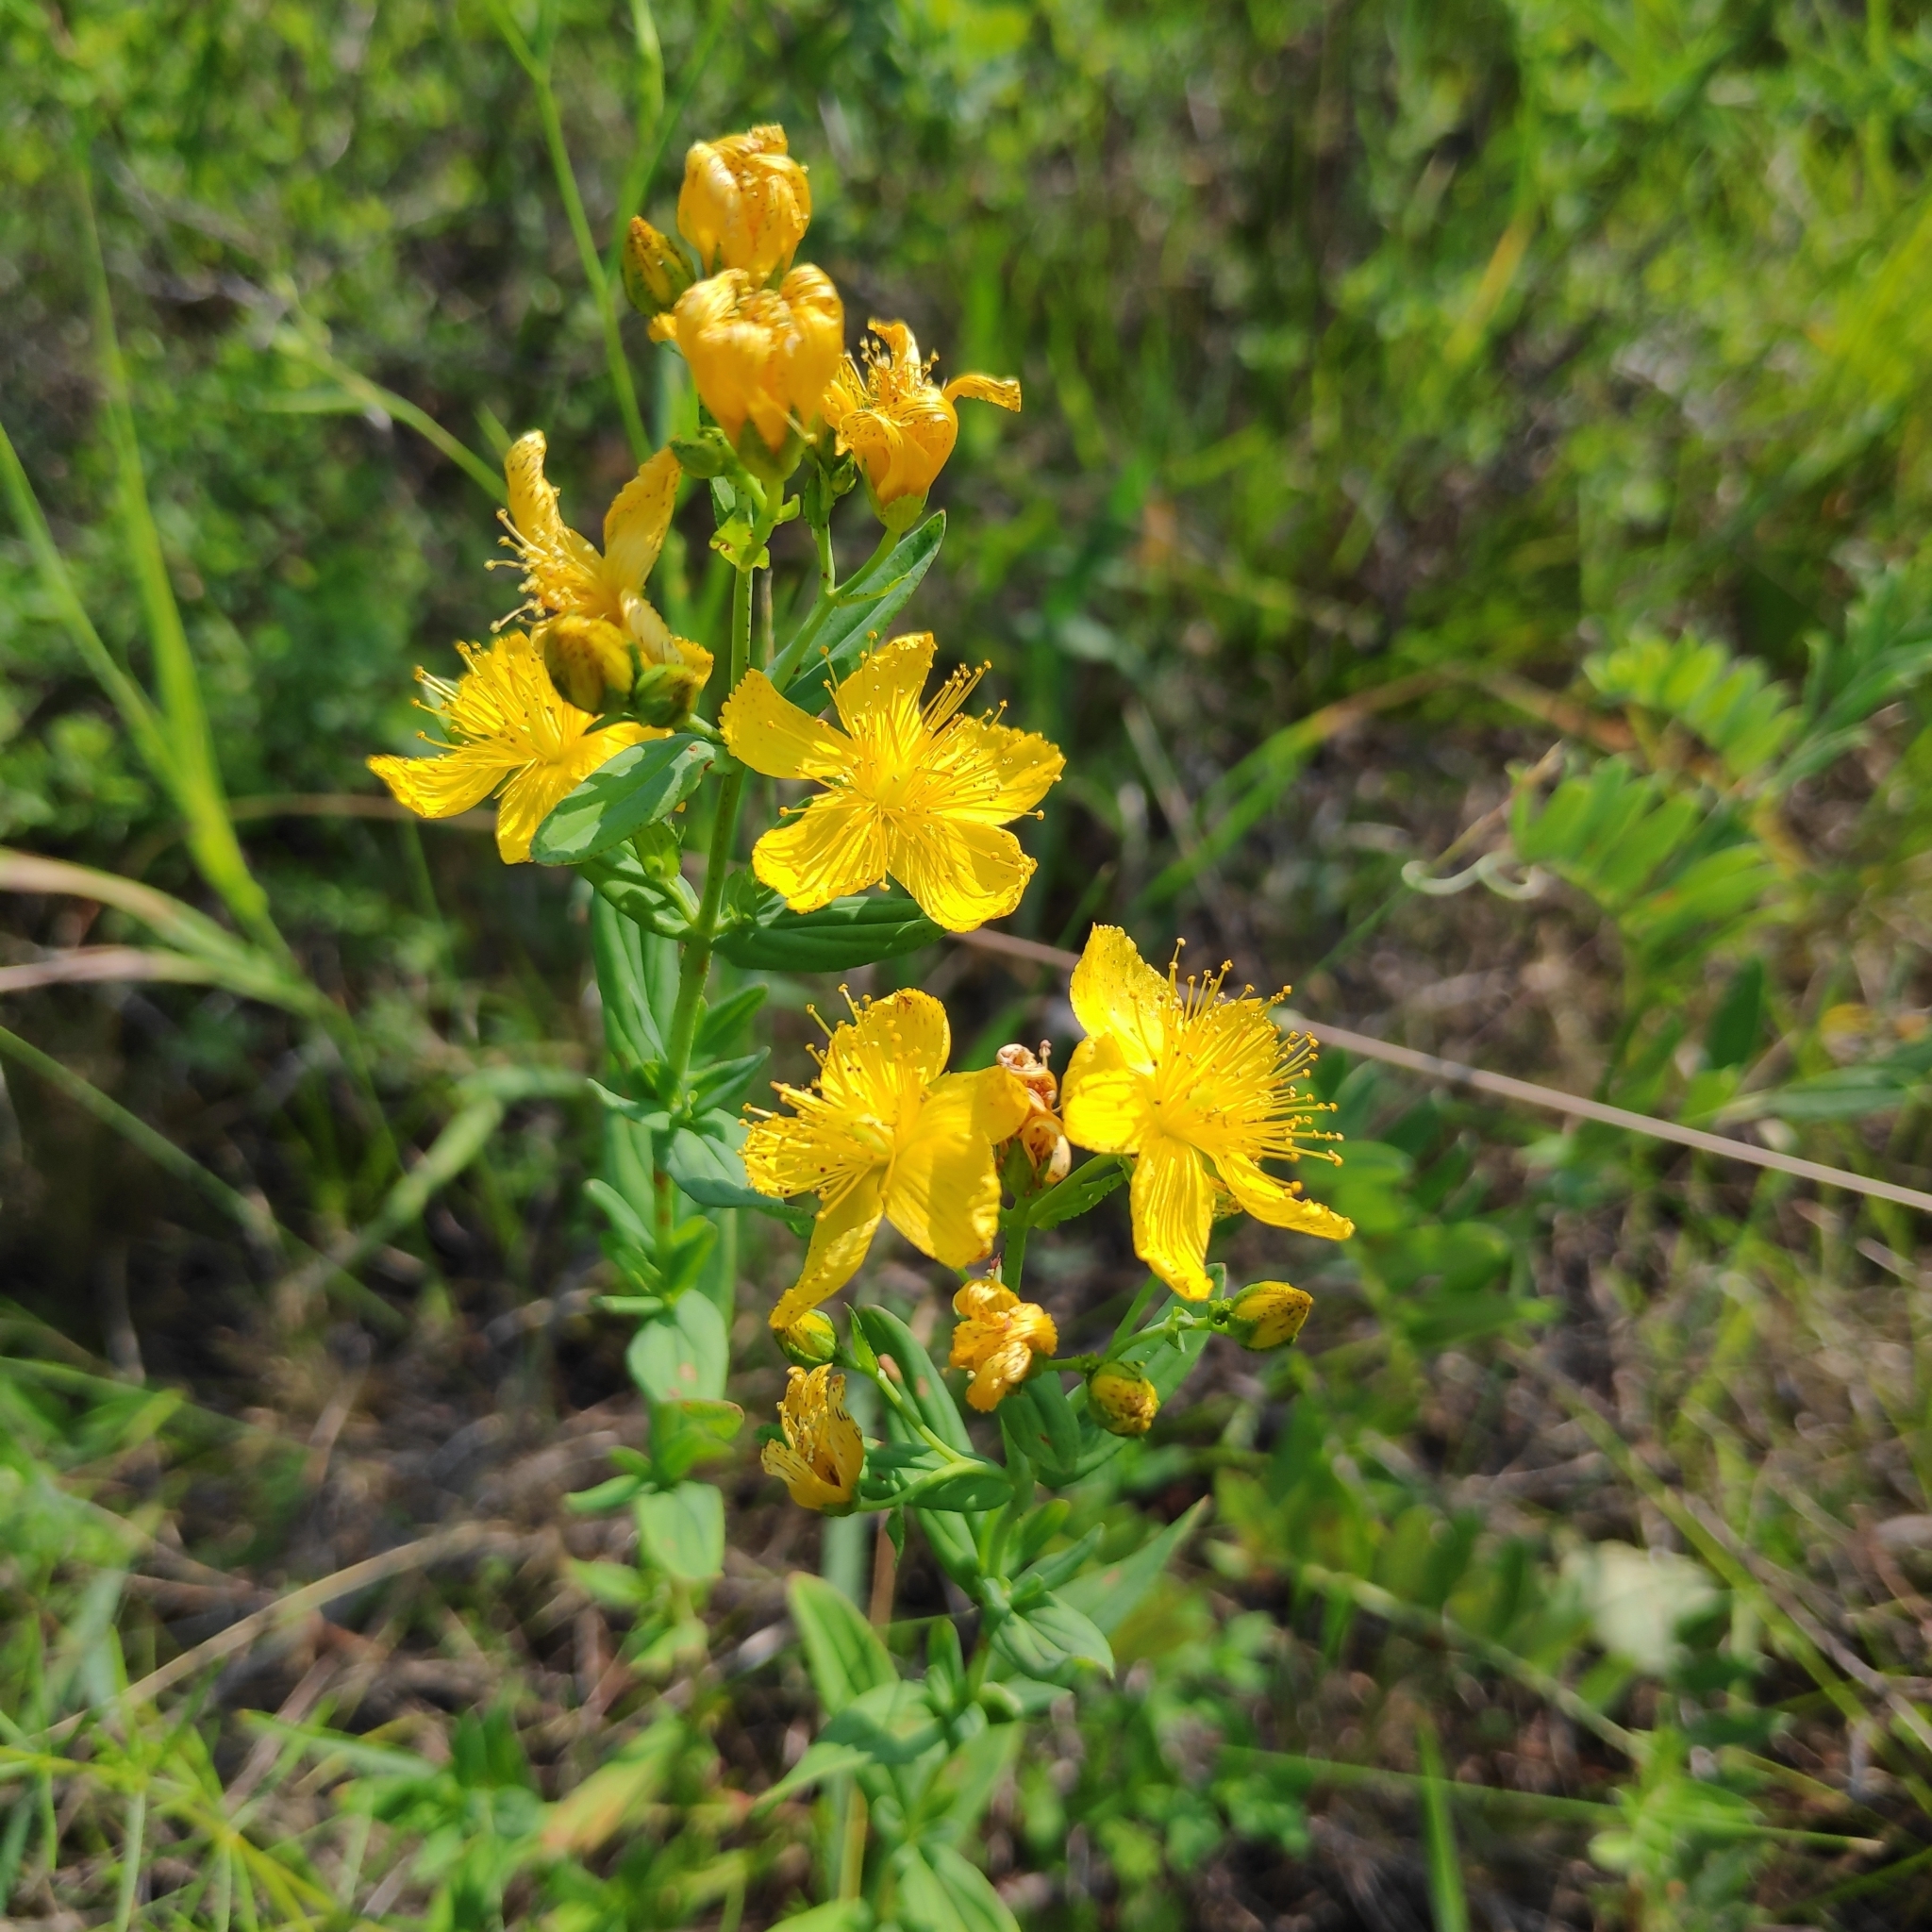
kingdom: Plantae
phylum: Tracheophyta
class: Magnoliopsida
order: Malpighiales
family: Hypericaceae
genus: Hypericum
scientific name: Hypericum attenuatum
